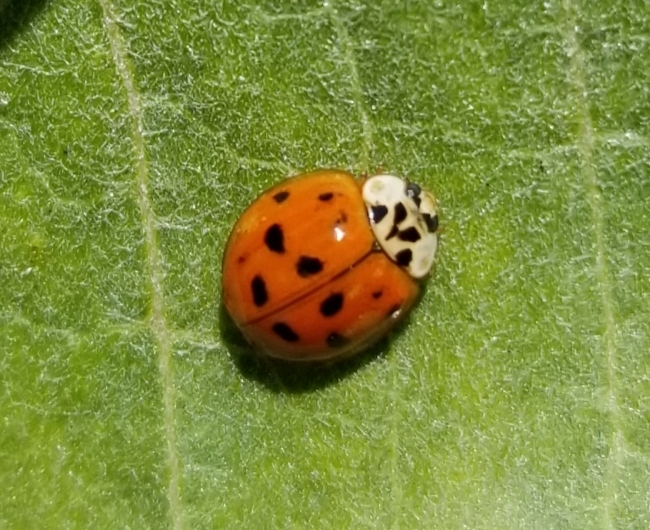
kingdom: Animalia
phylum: Arthropoda
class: Insecta
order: Coleoptera
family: Coccinellidae
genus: Harmonia
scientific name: Harmonia axyridis
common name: Harlequin ladybird
